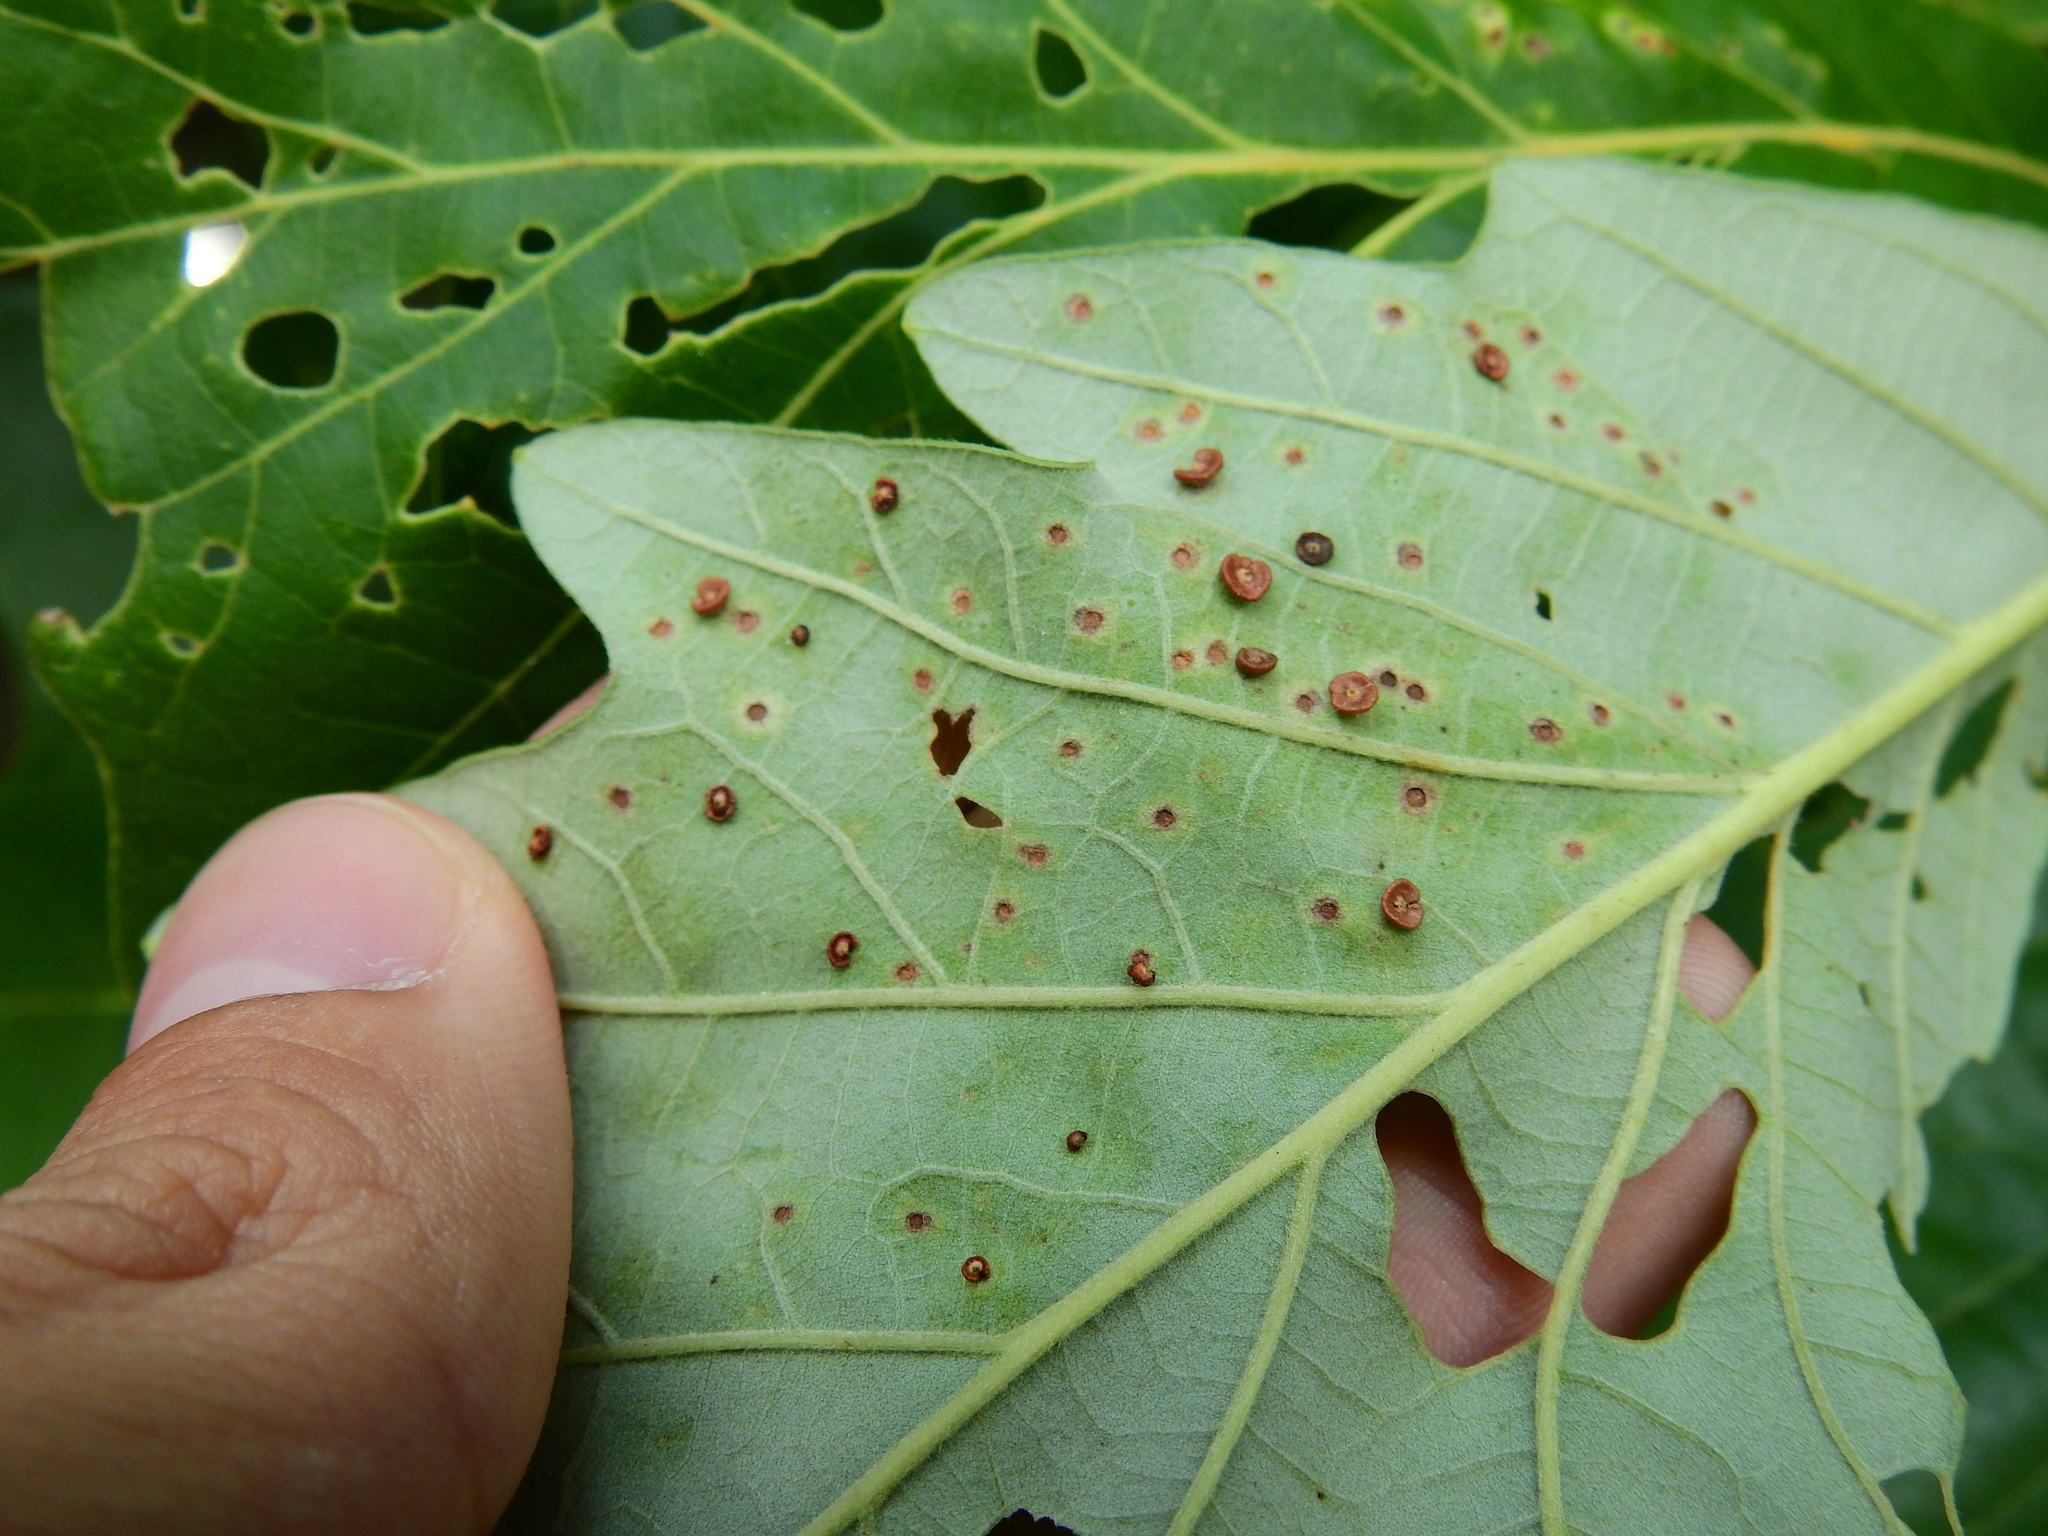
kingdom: Animalia
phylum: Arthropoda
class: Insecta
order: Hymenoptera
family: Cynipidae
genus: Neuroterus
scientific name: Neuroterus saltarius
